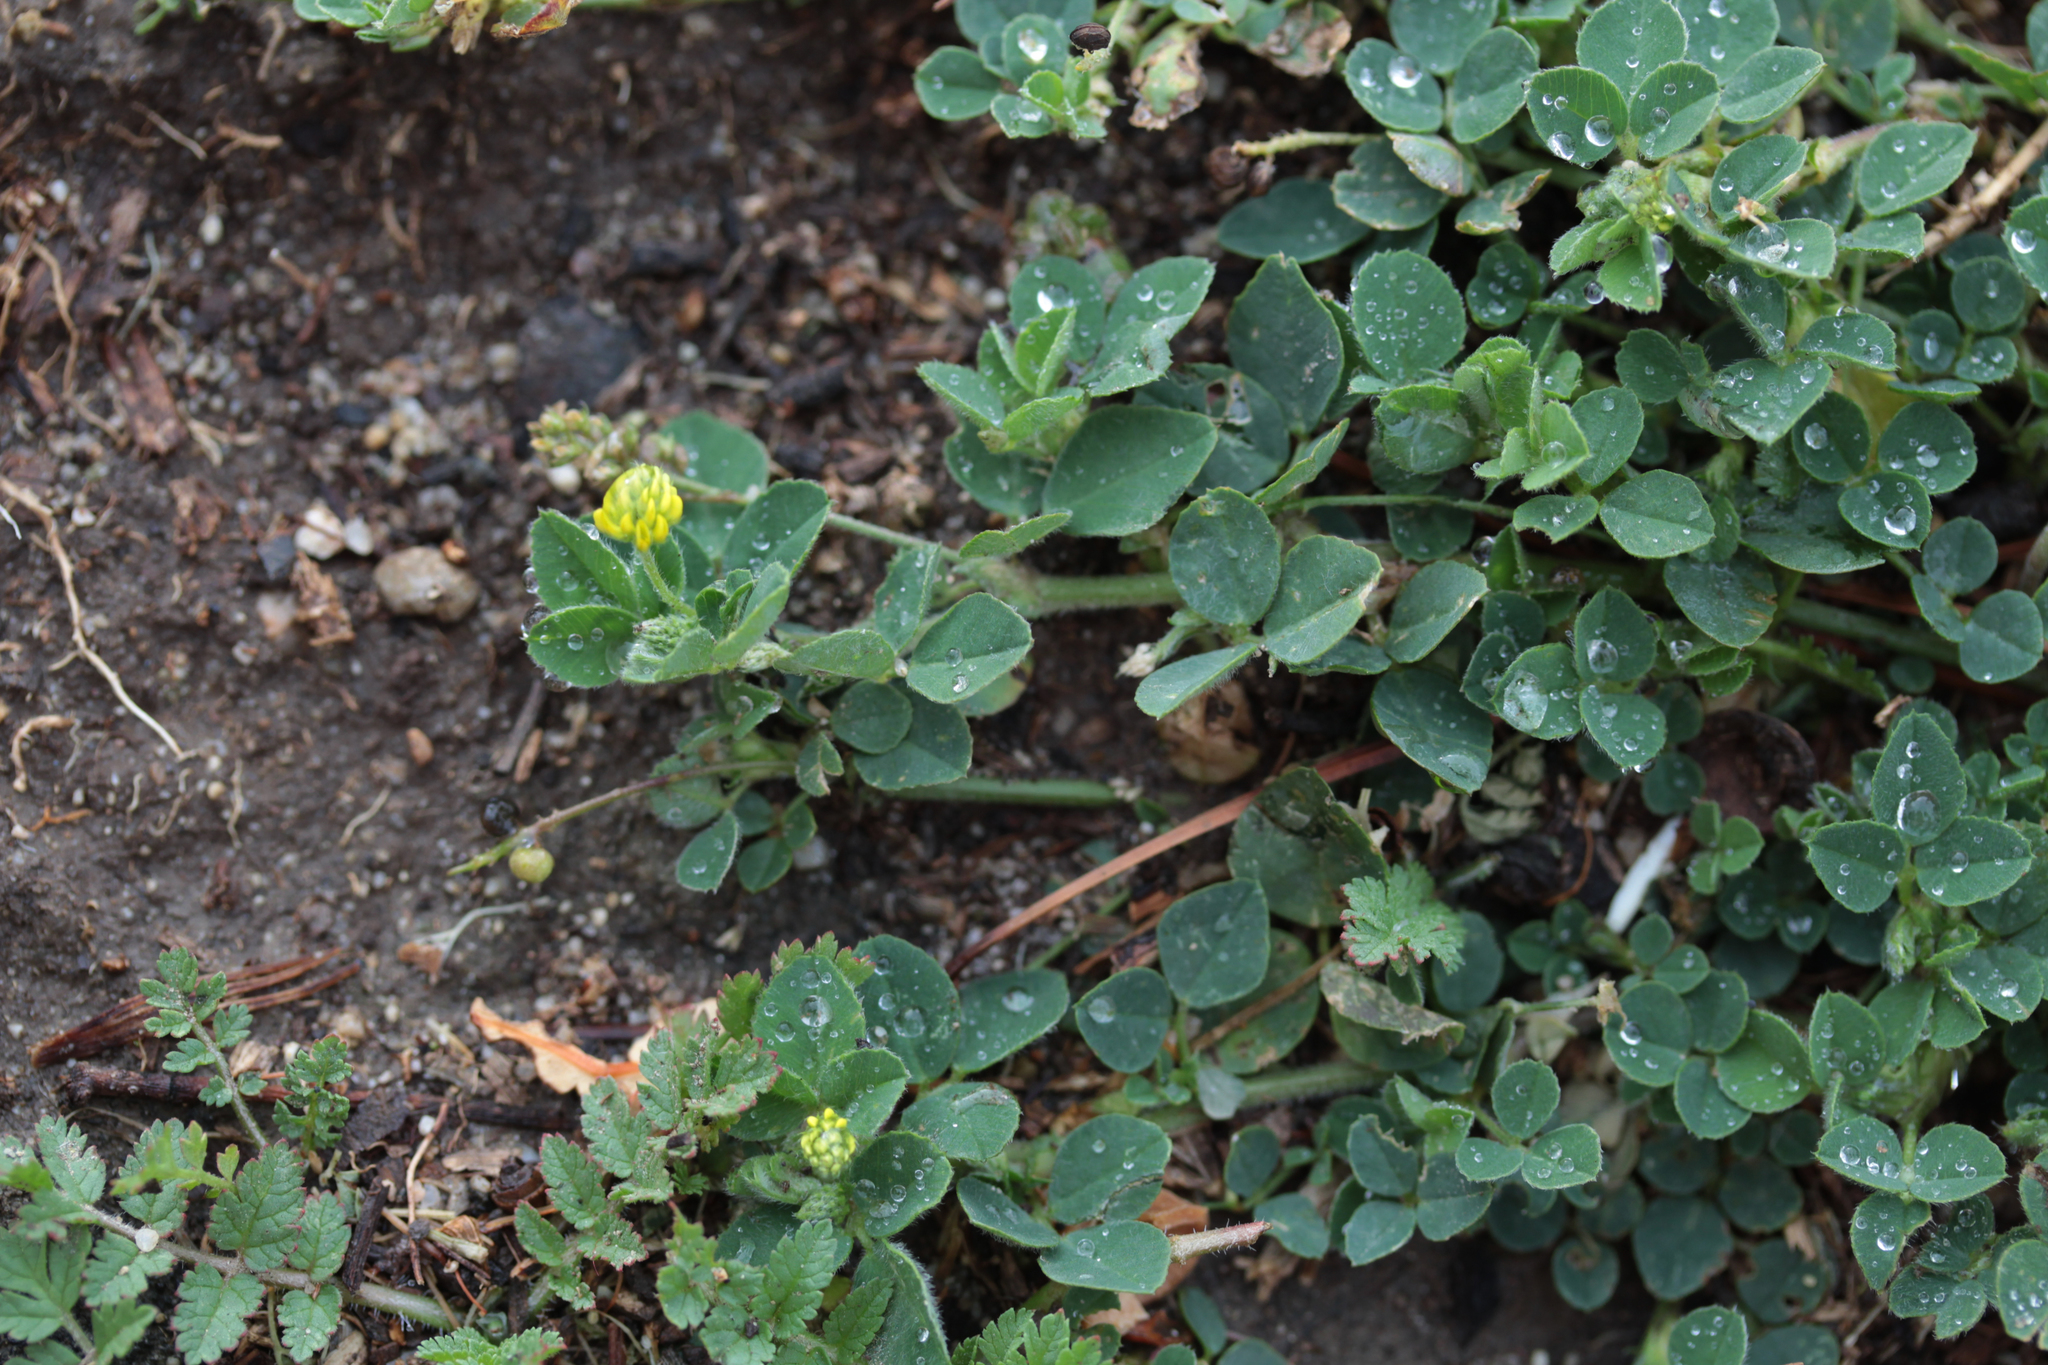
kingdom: Plantae
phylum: Tracheophyta
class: Magnoliopsida
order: Fabales
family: Fabaceae
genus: Medicago
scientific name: Medicago lupulina
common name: Black medick
